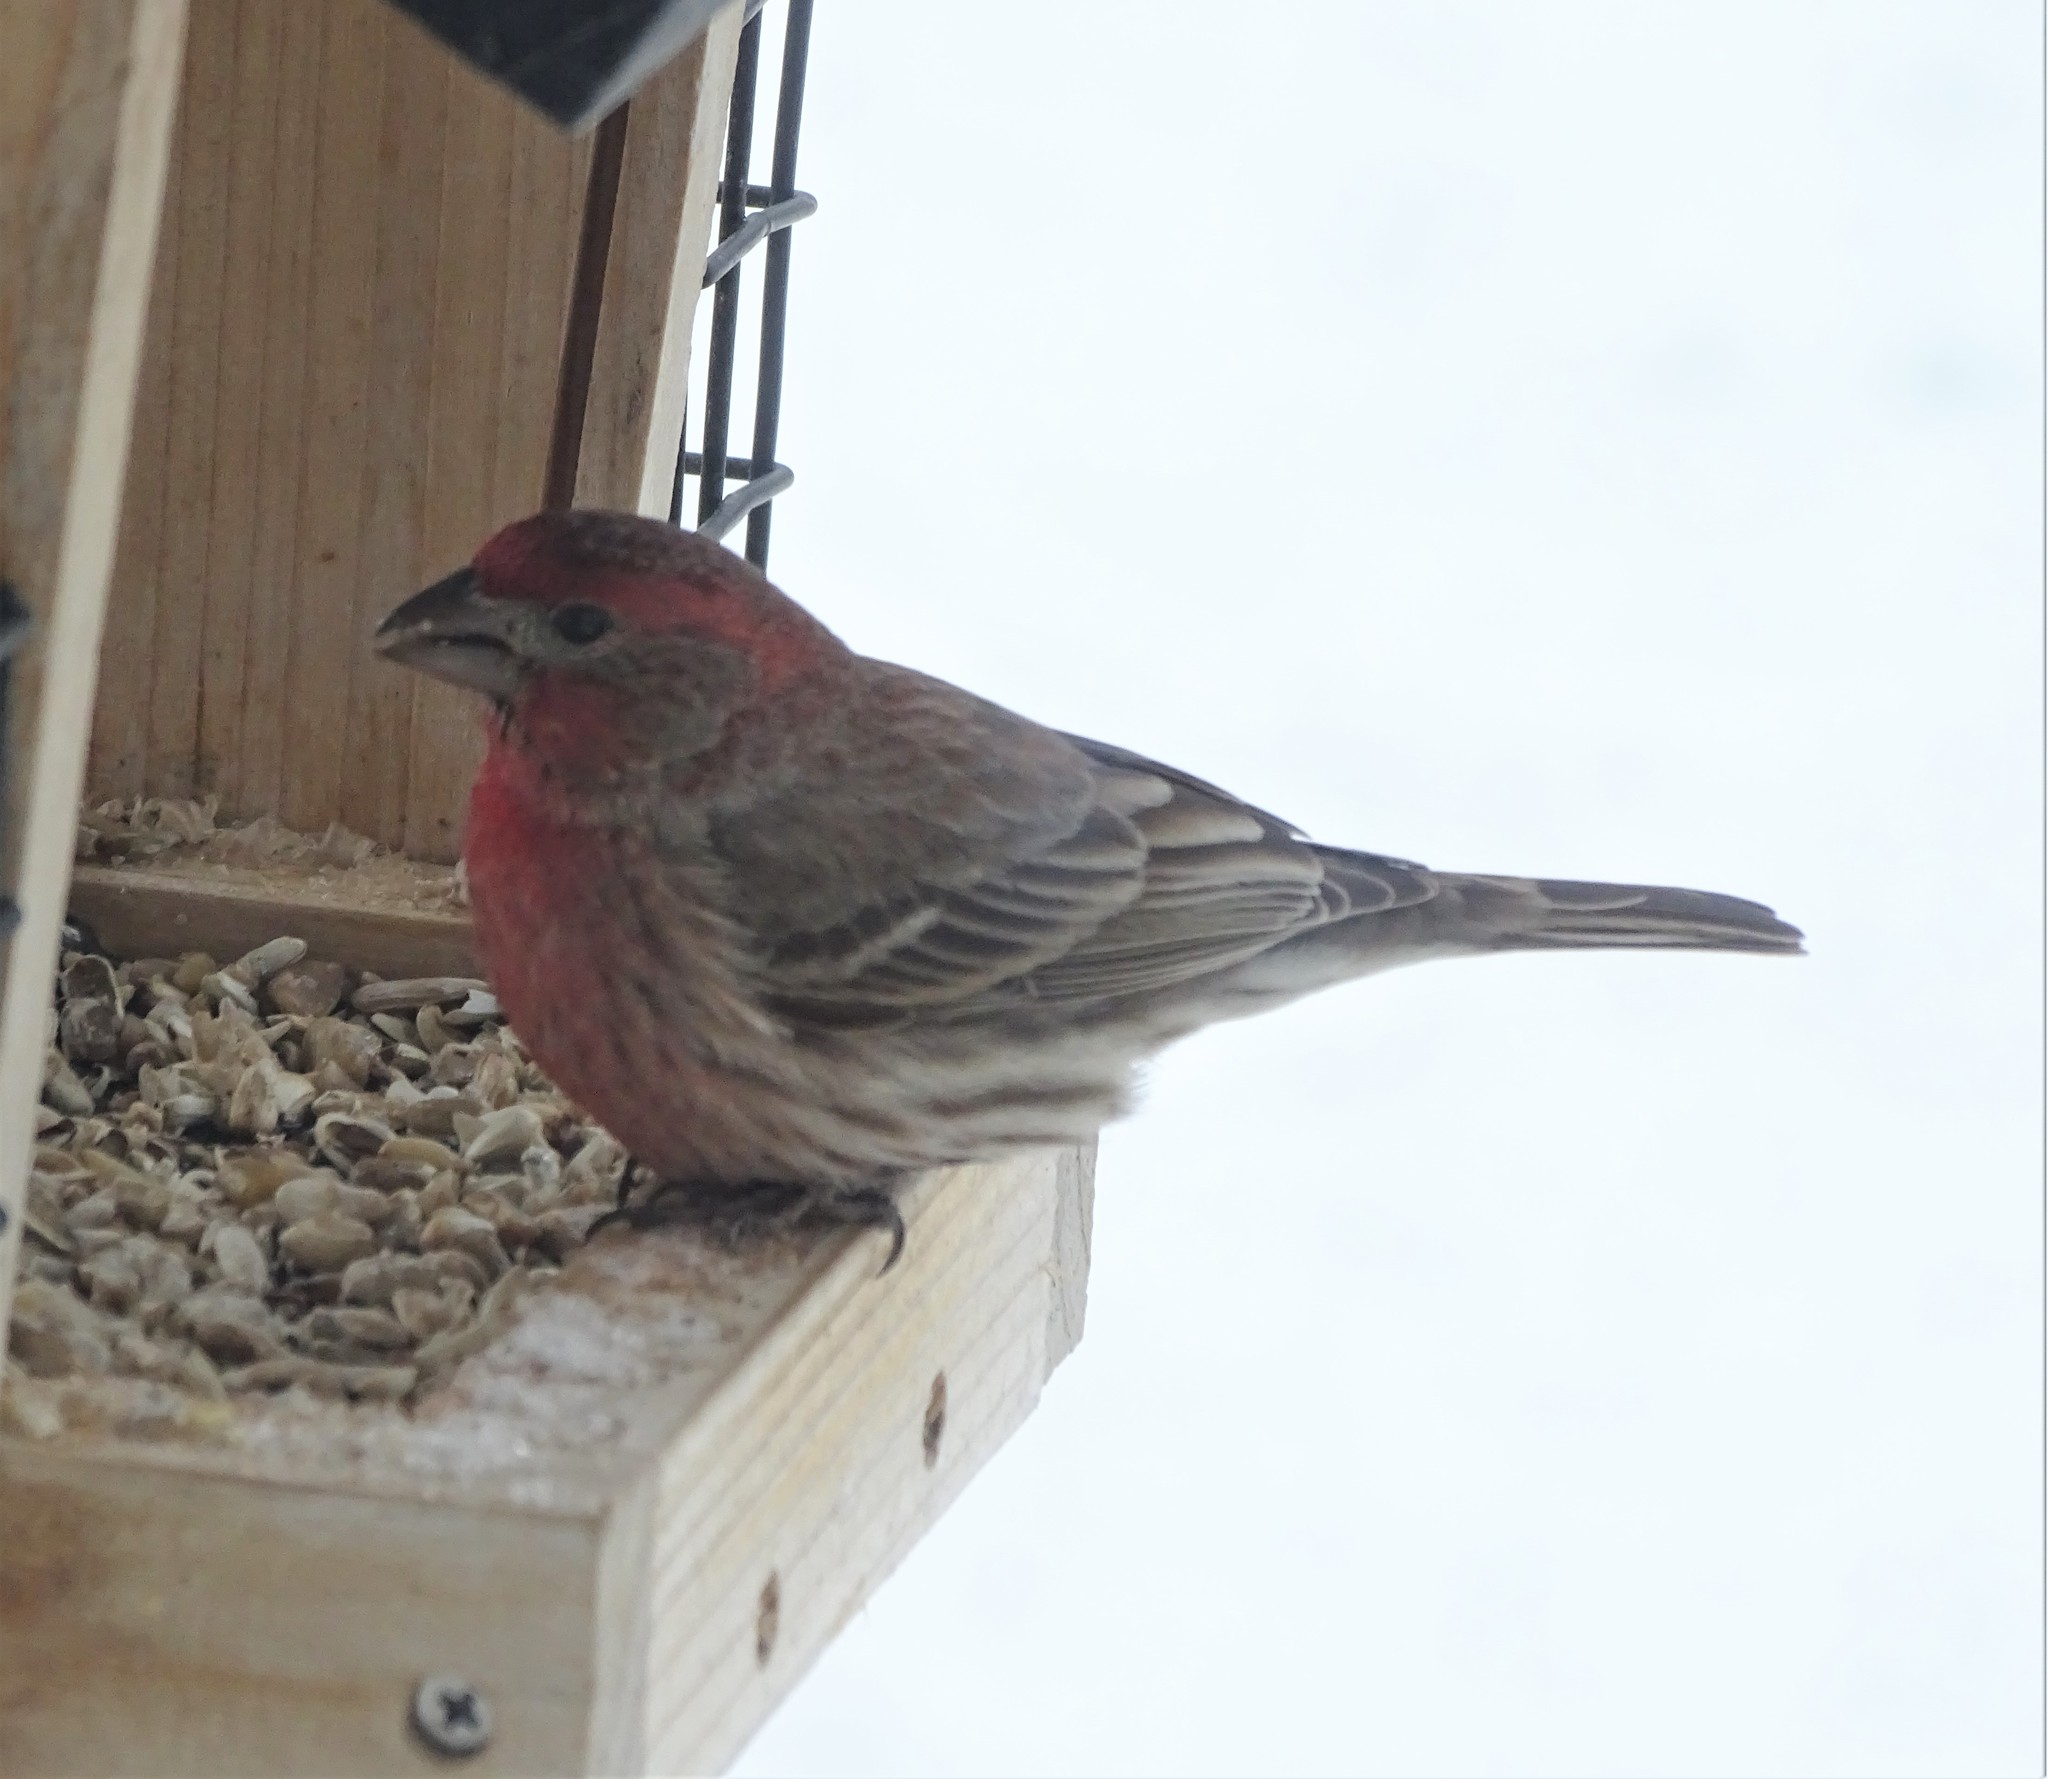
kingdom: Animalia
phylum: Chordata
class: Aves
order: Passeriformes
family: Fringillidae
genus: Haemorhous
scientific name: Haemorhous mexicanus
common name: House finch
